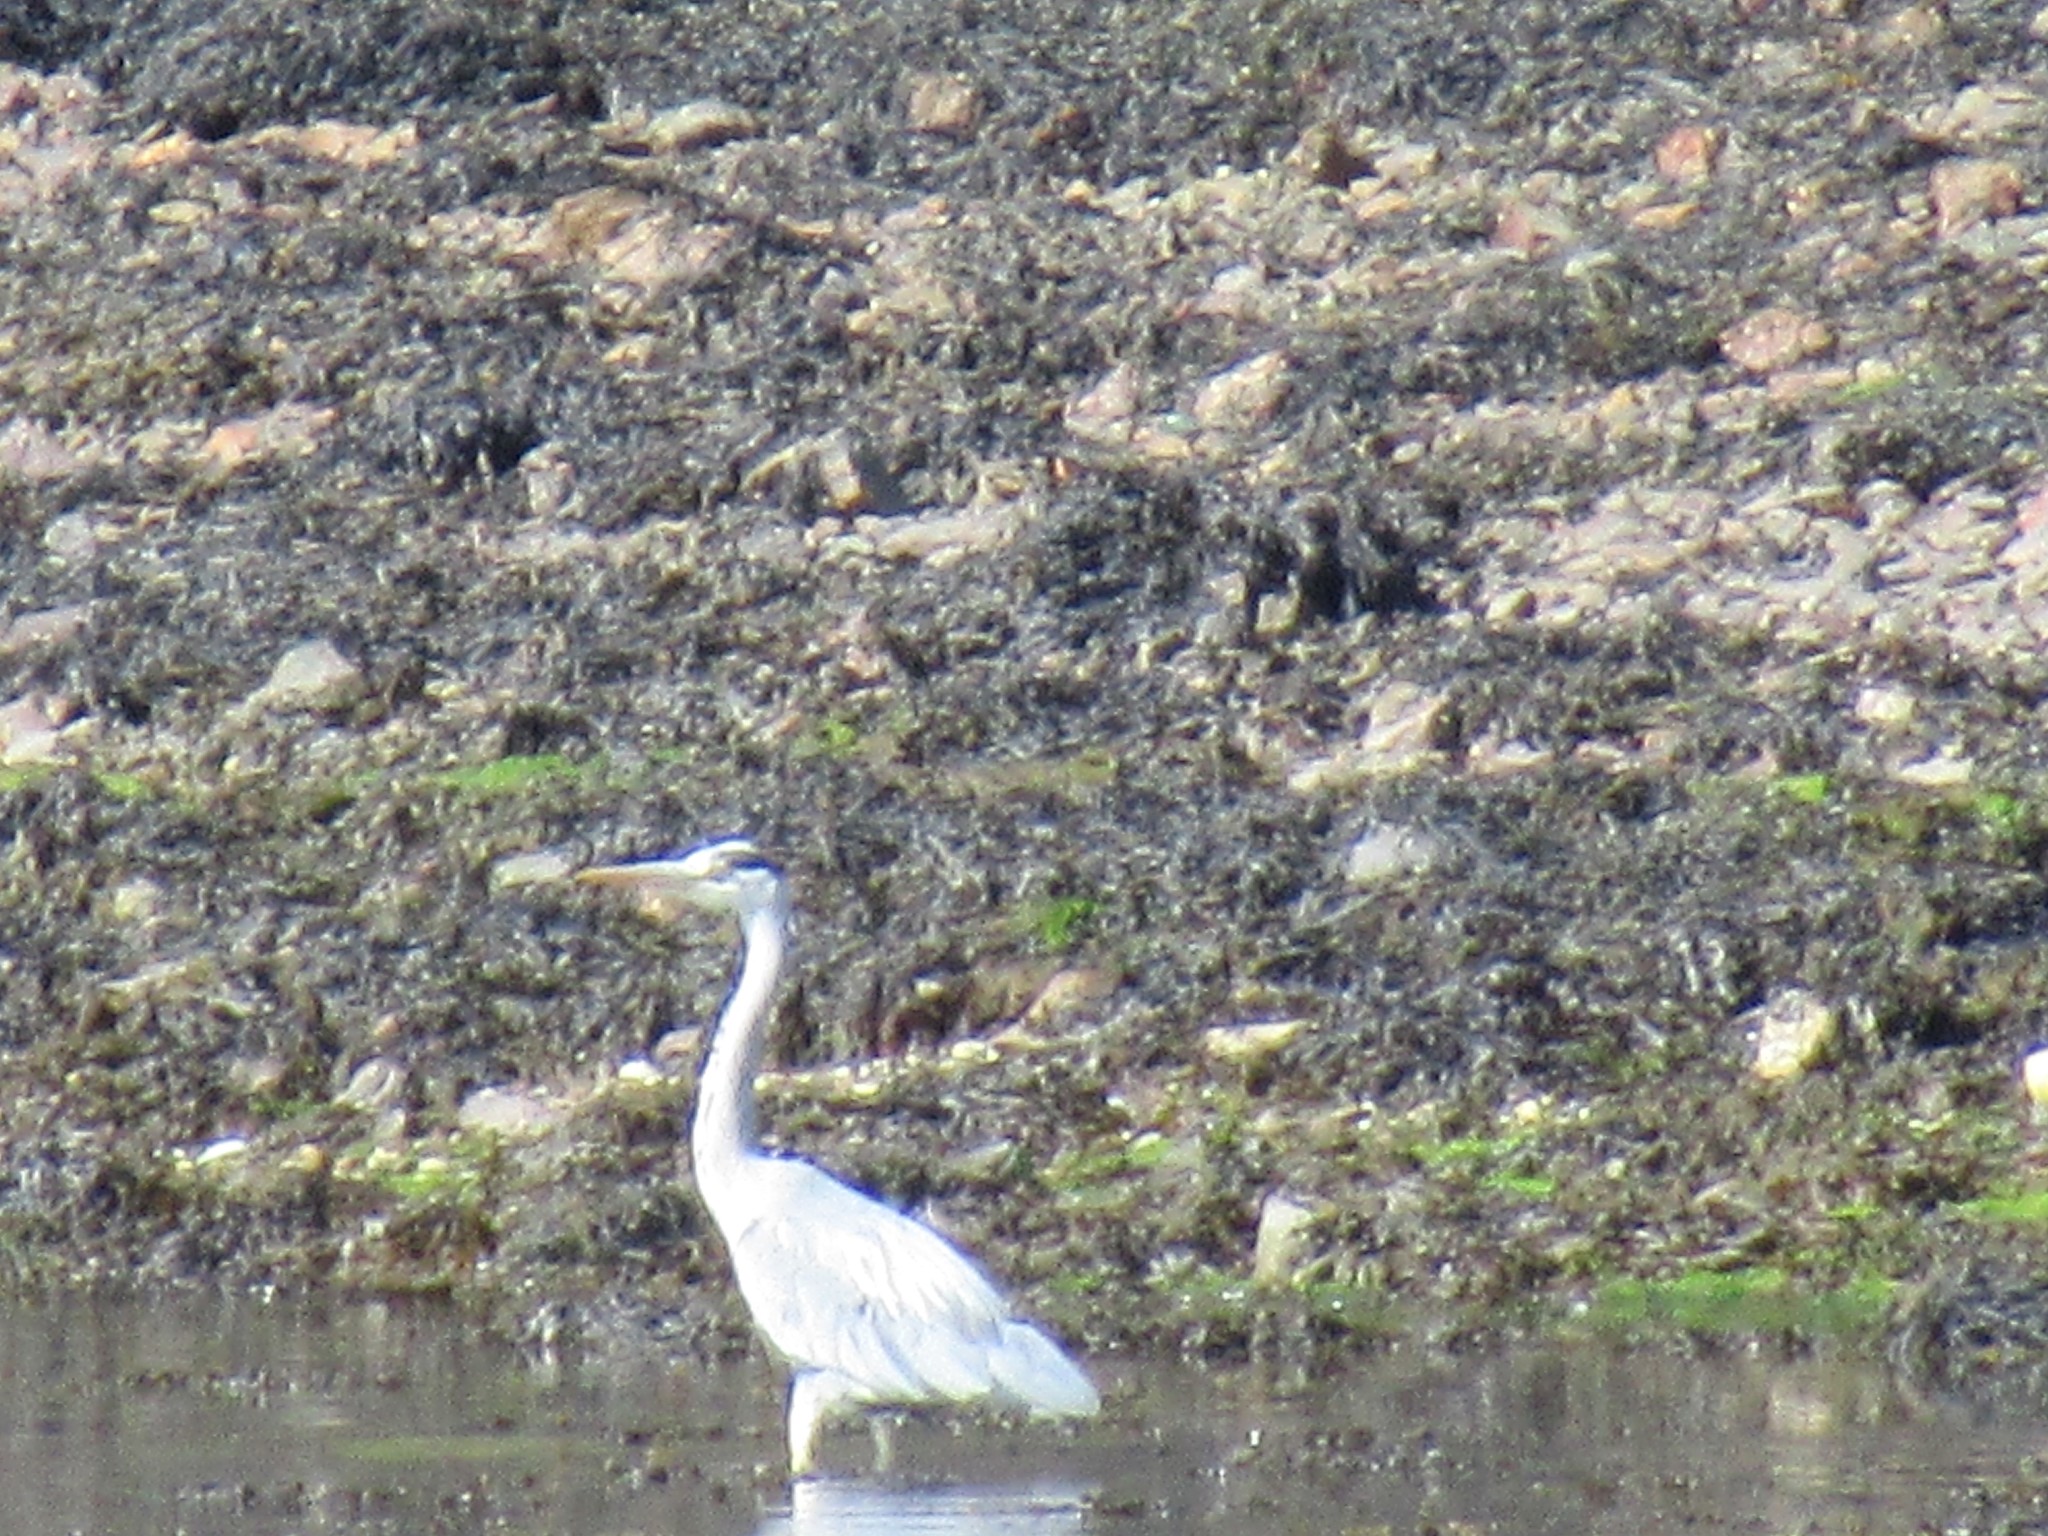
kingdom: Animalia
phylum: Chordata
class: Aves
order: Pelecaniformes
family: Ardeidae
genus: Ardea
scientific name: Ardea cinerea
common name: Grey heron
